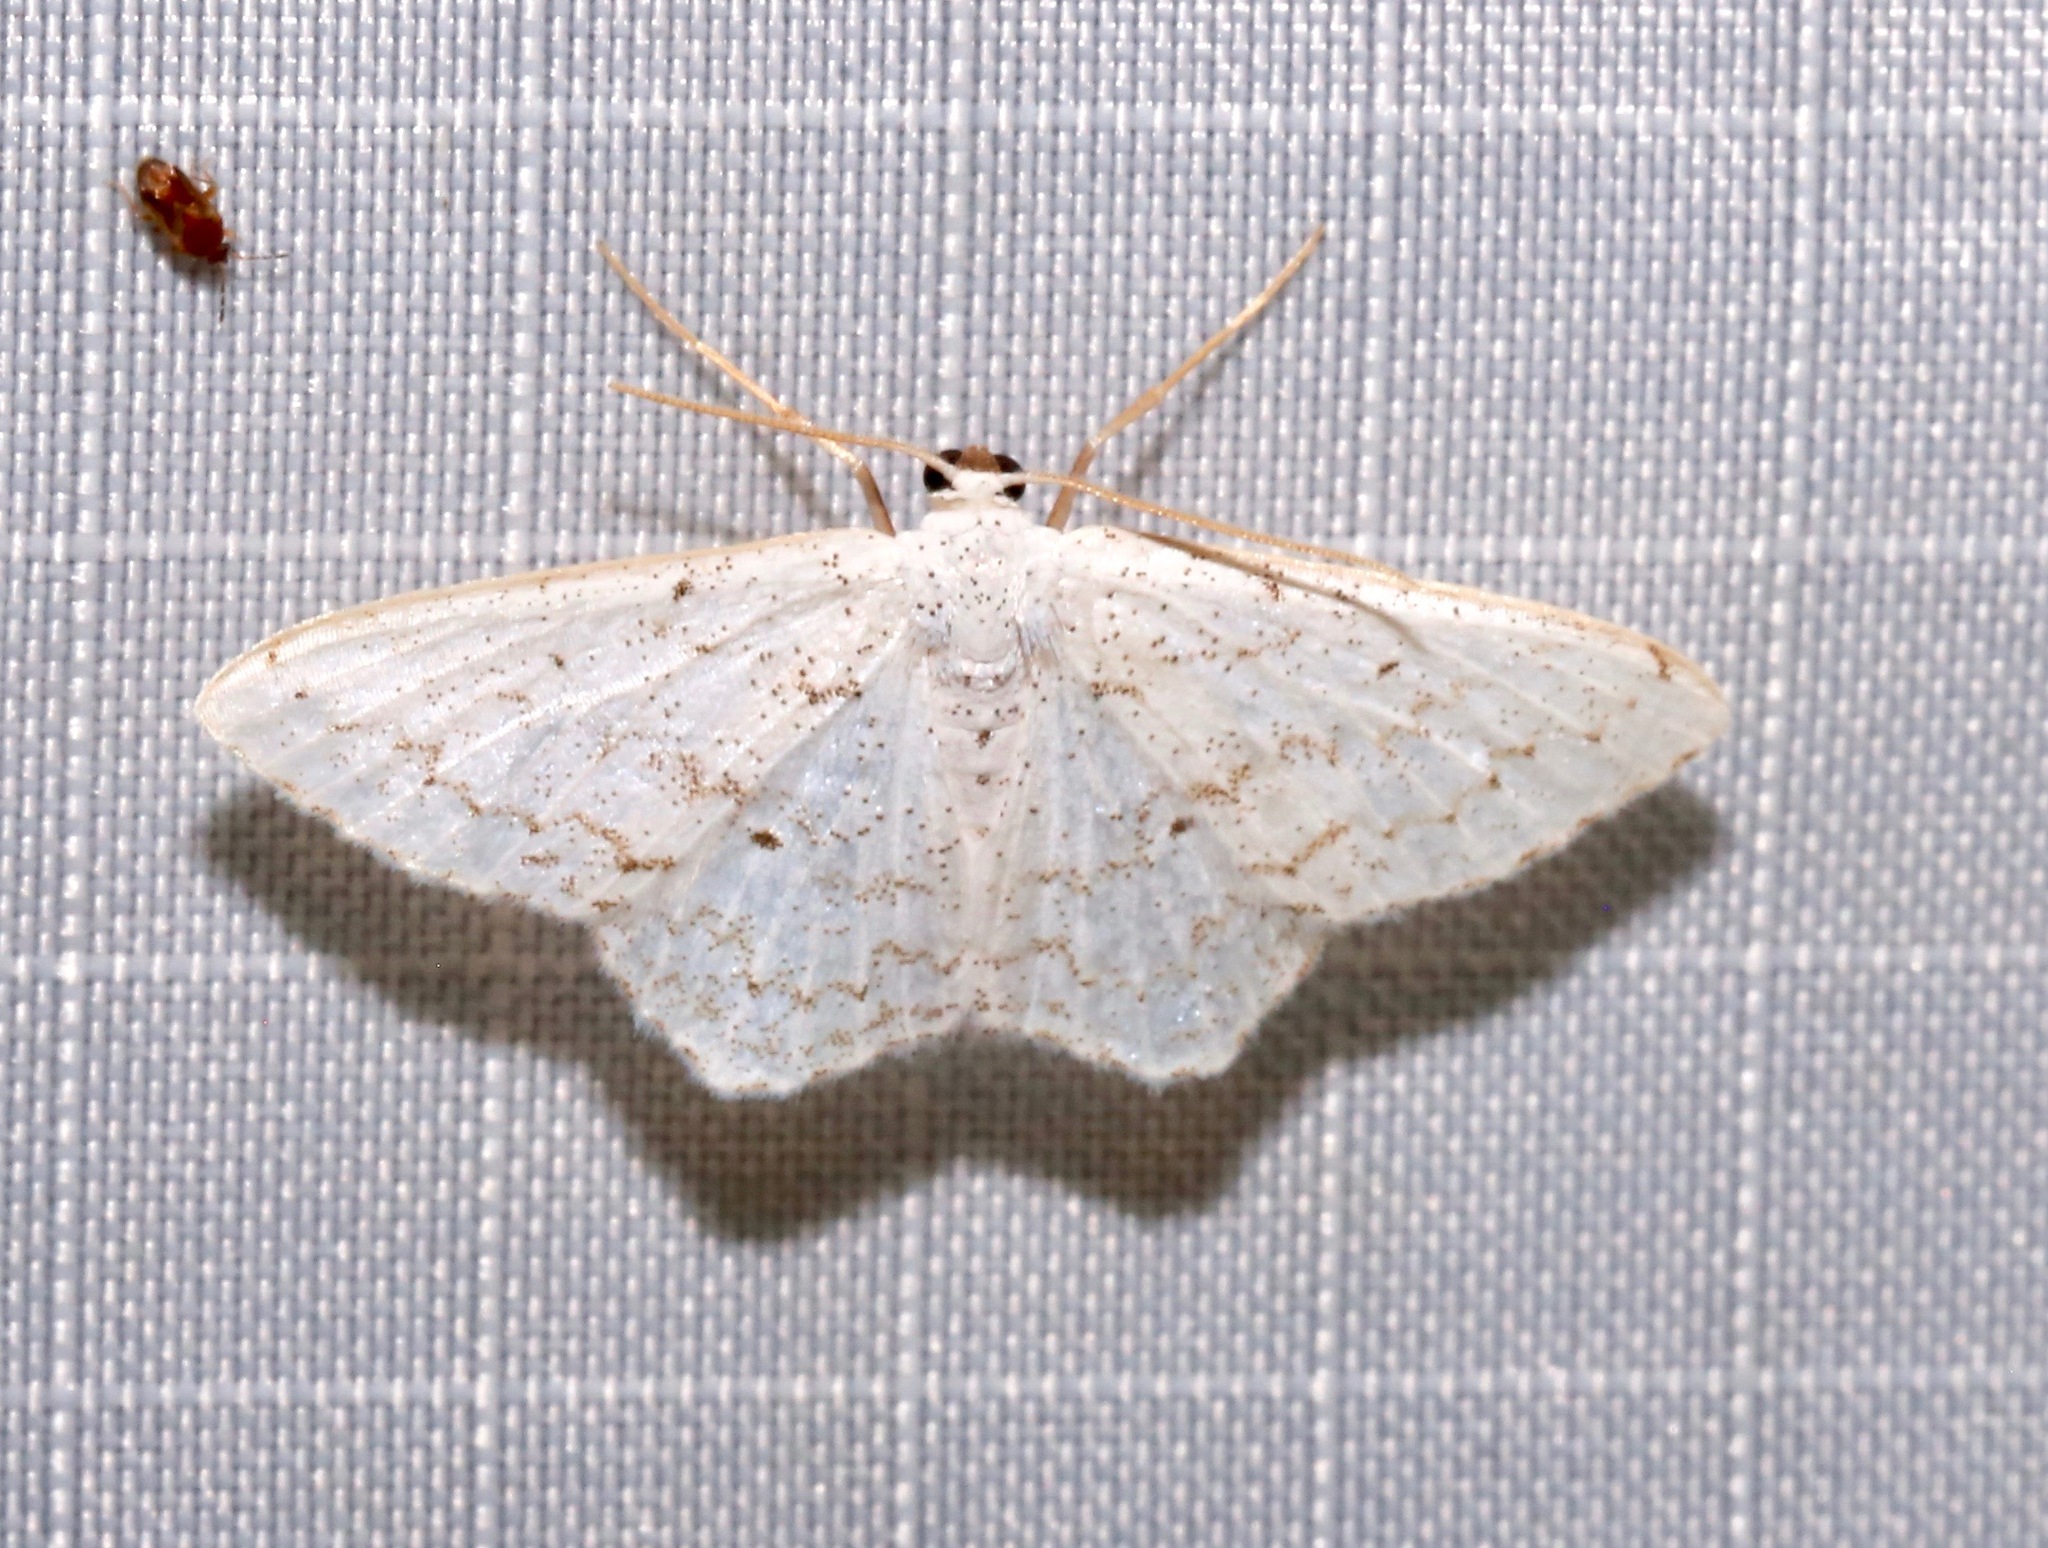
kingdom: Animalia
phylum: Arthropoda
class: Insecta
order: Lepidoptera
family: Geometridae
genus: Idaea
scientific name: Idaea tacturata
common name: Dot-lined wave
